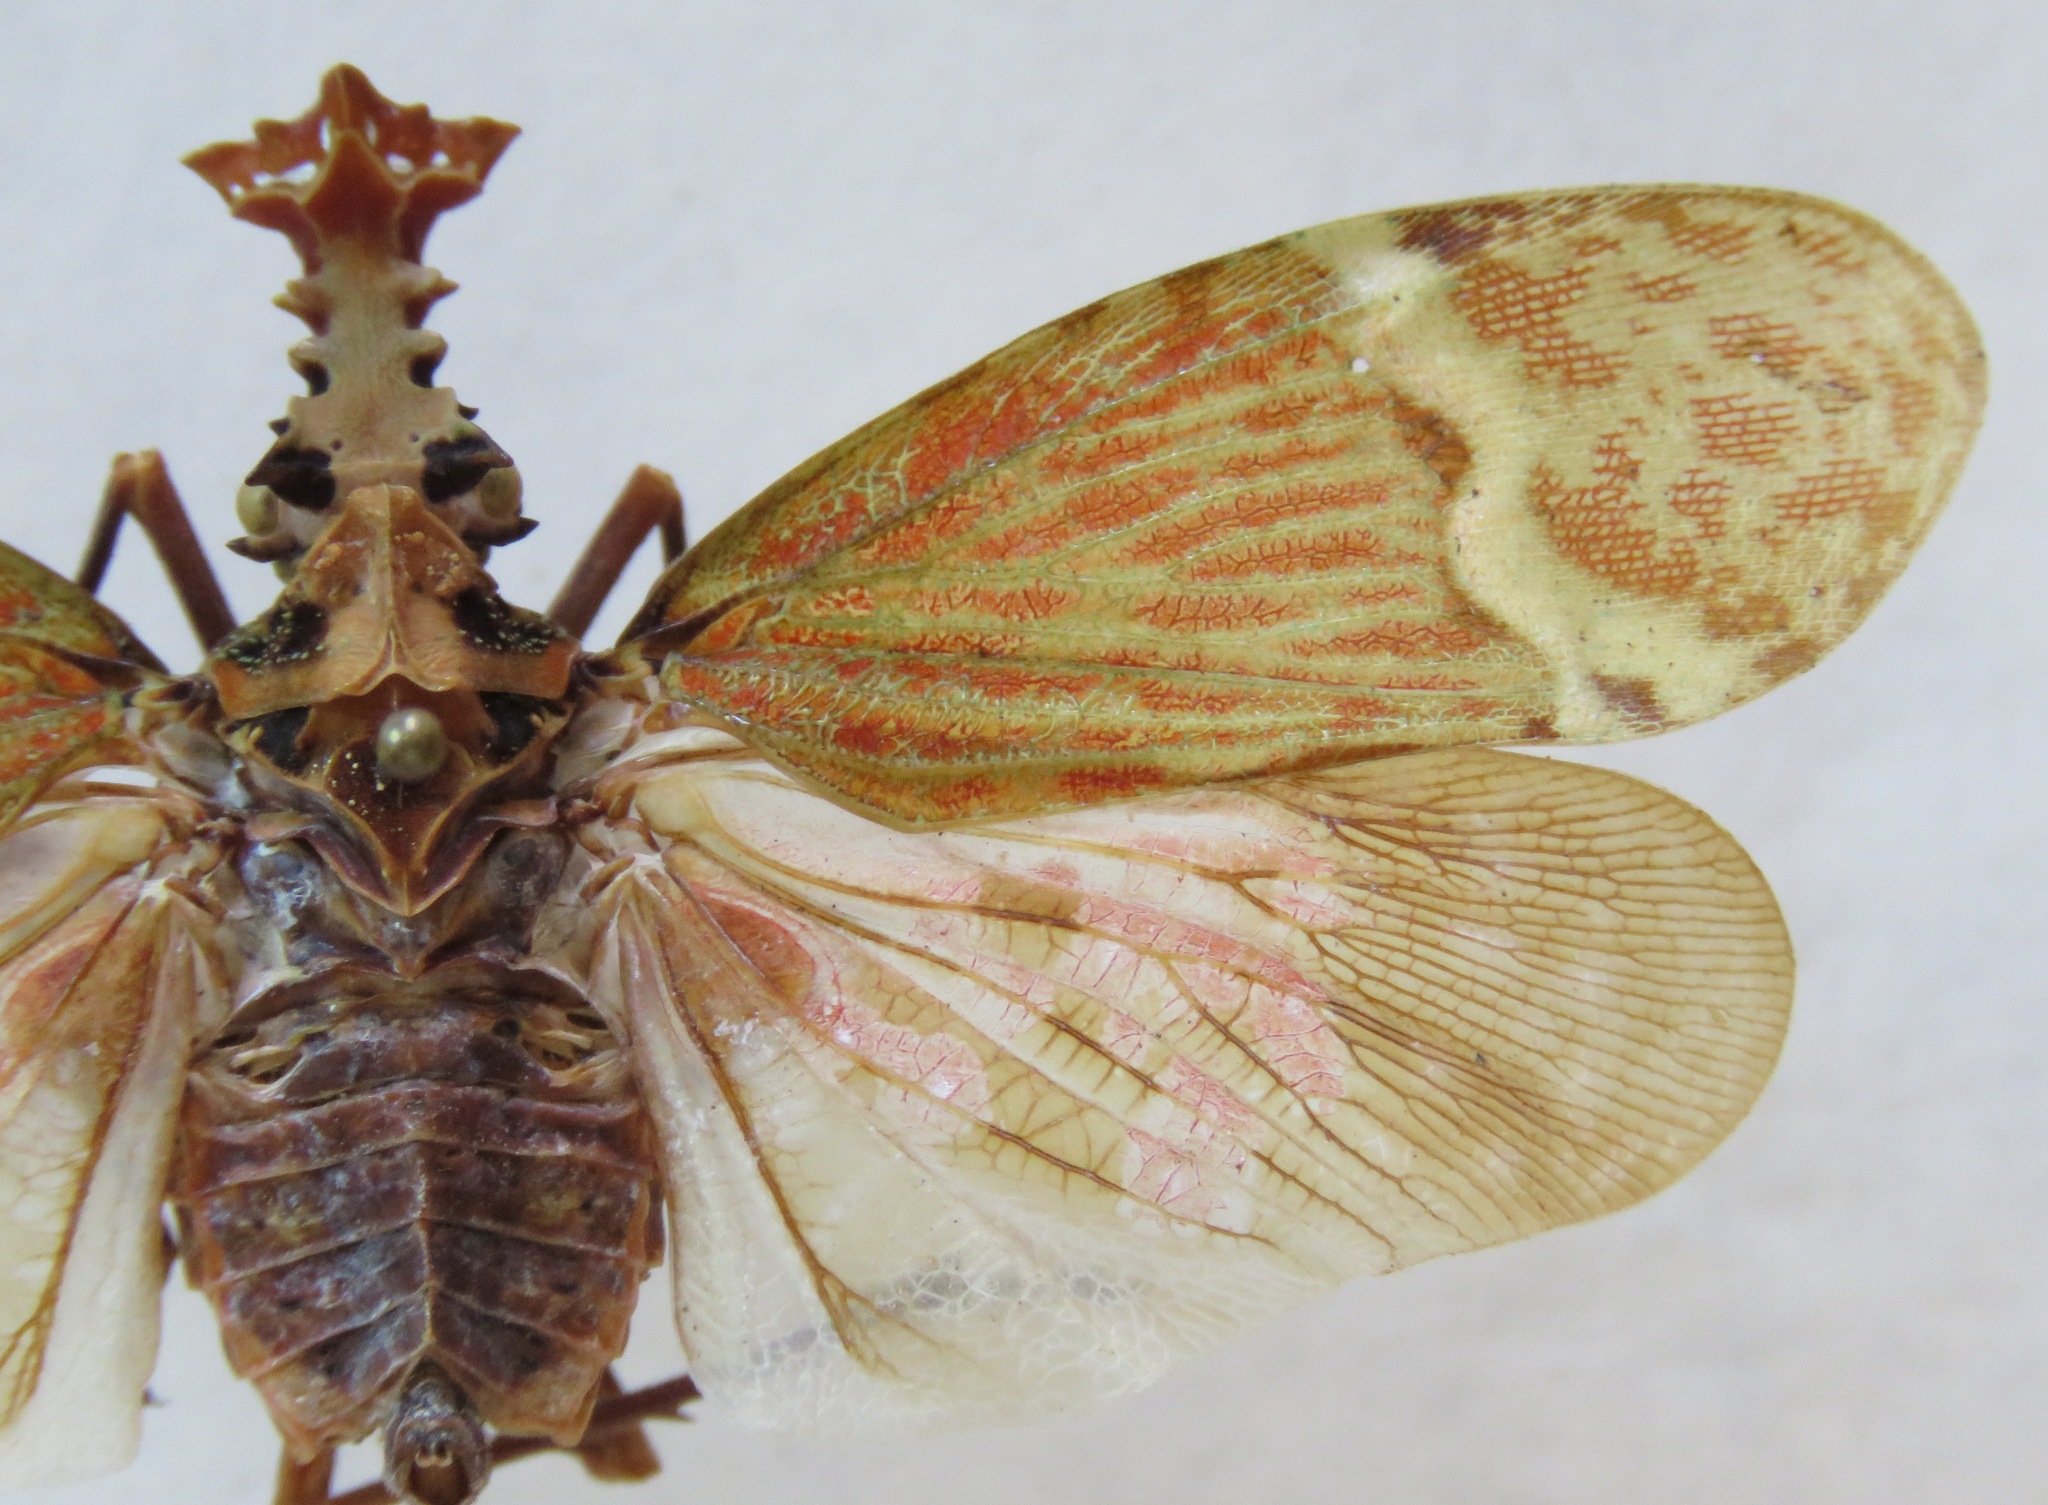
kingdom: Animalia
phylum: Arthropoda
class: Insecta
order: Hemiptera
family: Fulgoridae
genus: Phrictus
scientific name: Phrictus quinquepartitus
